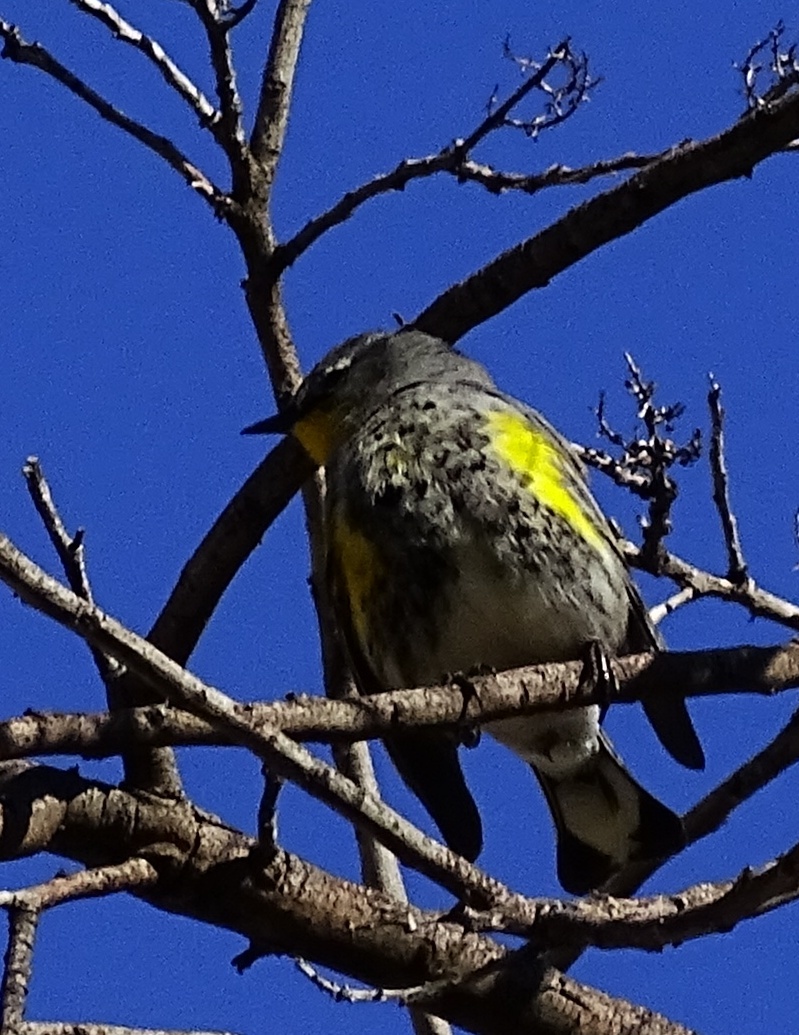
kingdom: Animalia
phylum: Chordata
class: Aves
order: Passeriformes
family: Parulidae
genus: Setophaga
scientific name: Setophaga coronata
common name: Myrtle warbler
